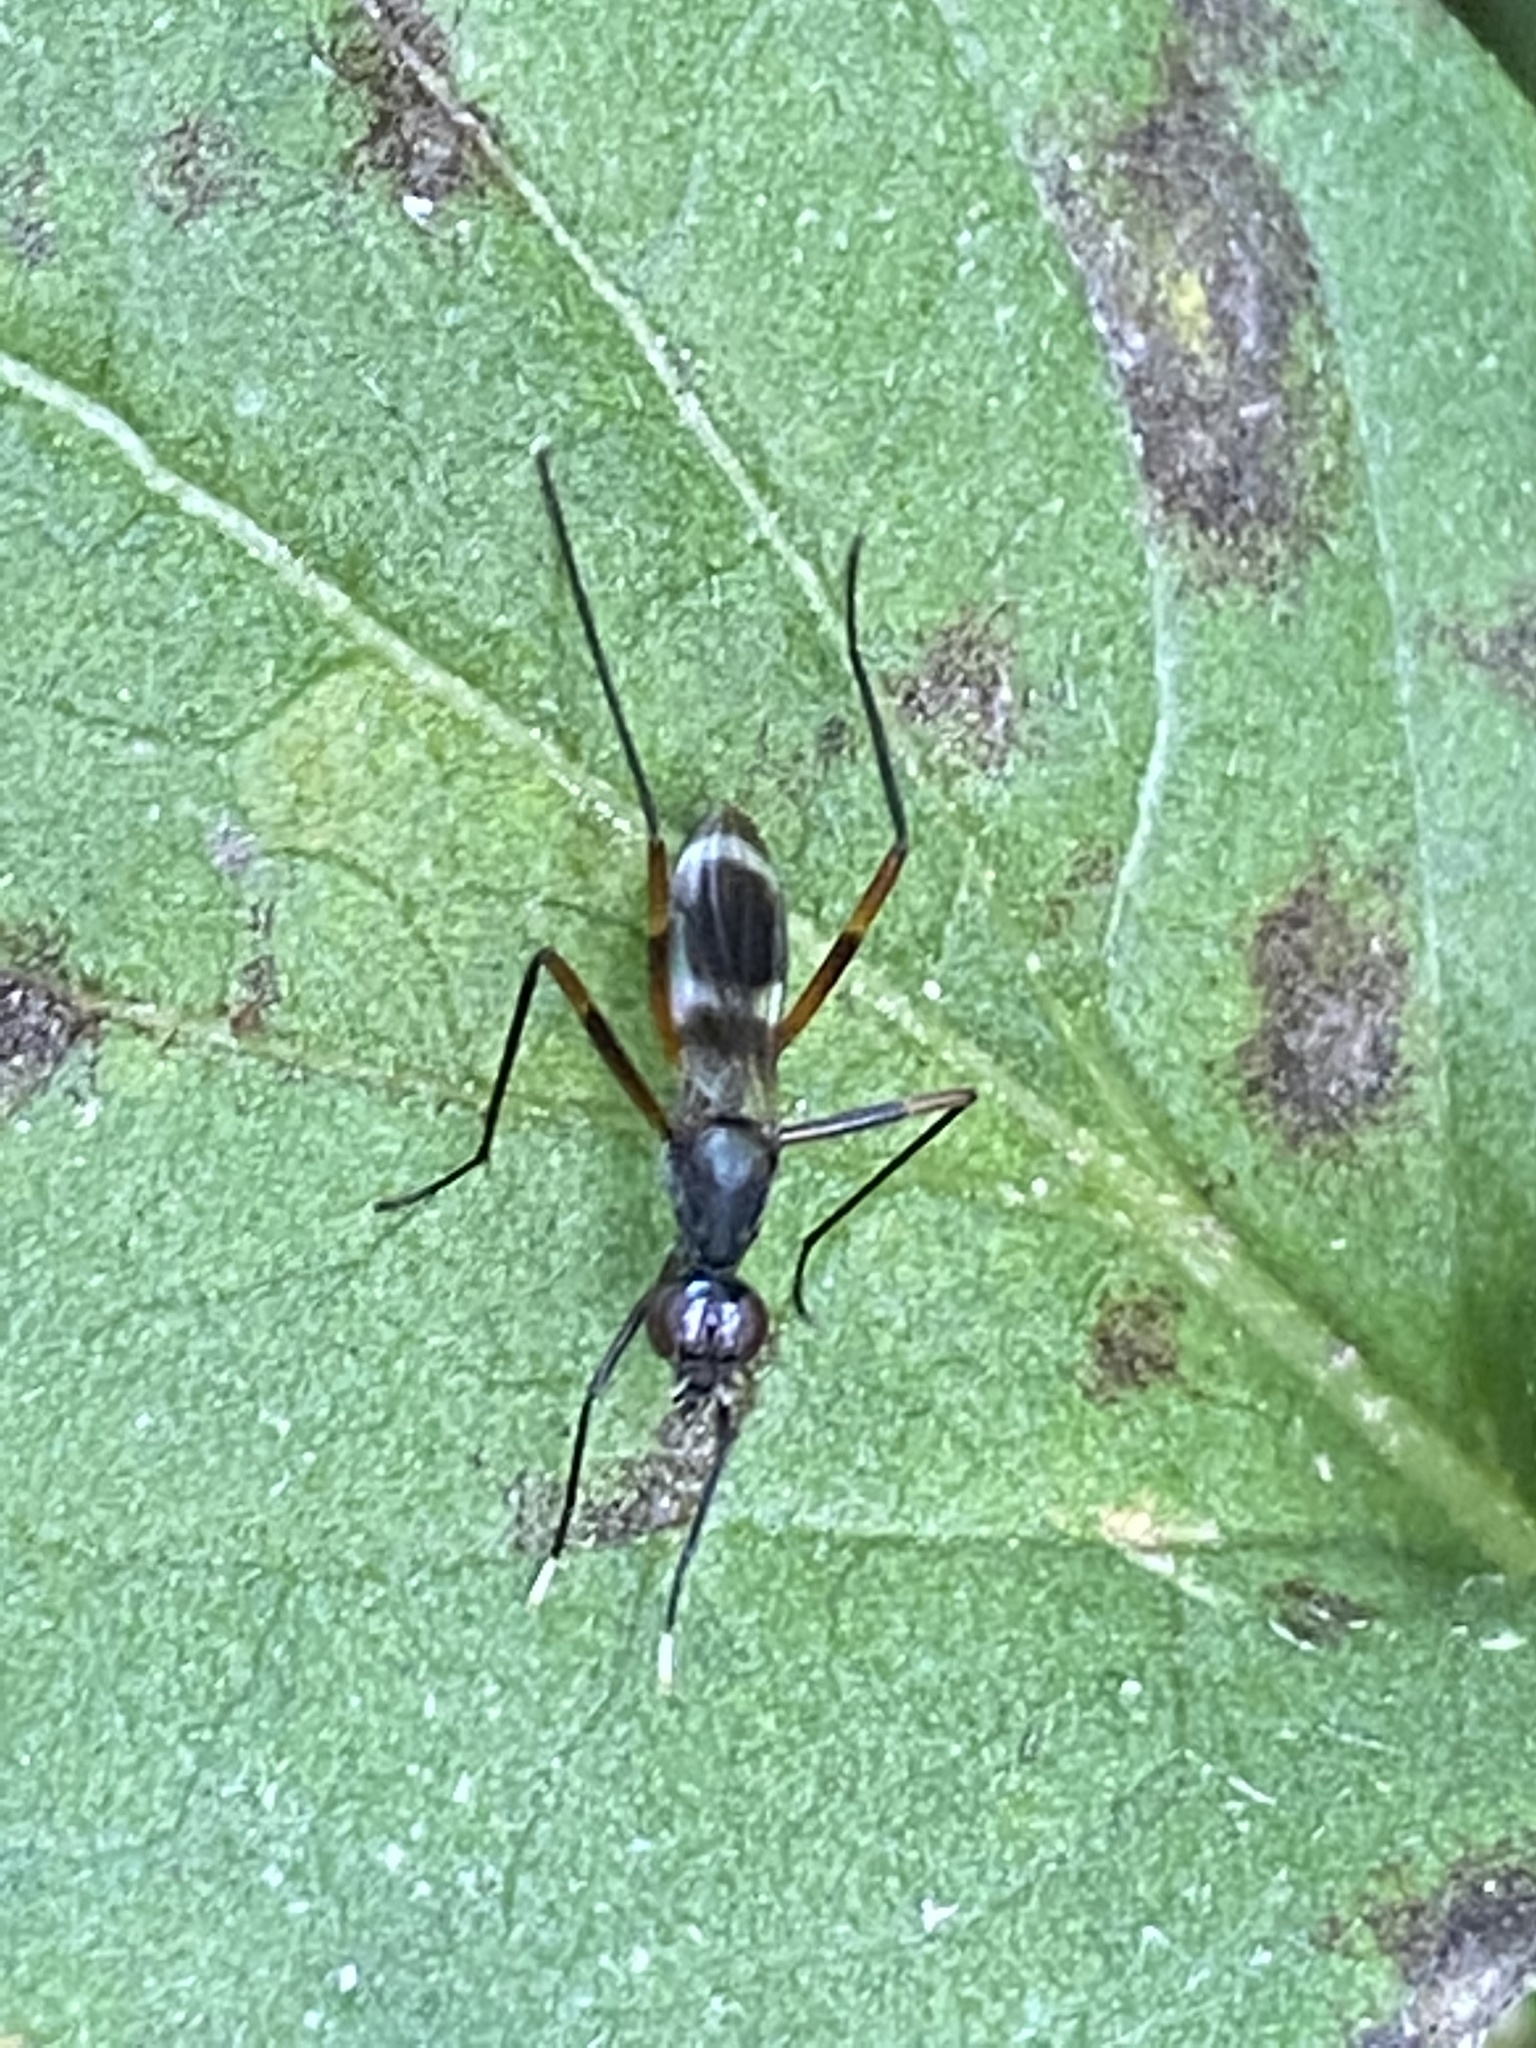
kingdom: Animalia
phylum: Arthropoda
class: Insecta
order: Diptera
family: Micropezidae
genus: Taeniaptera
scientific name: Taeniaptera trivittata
